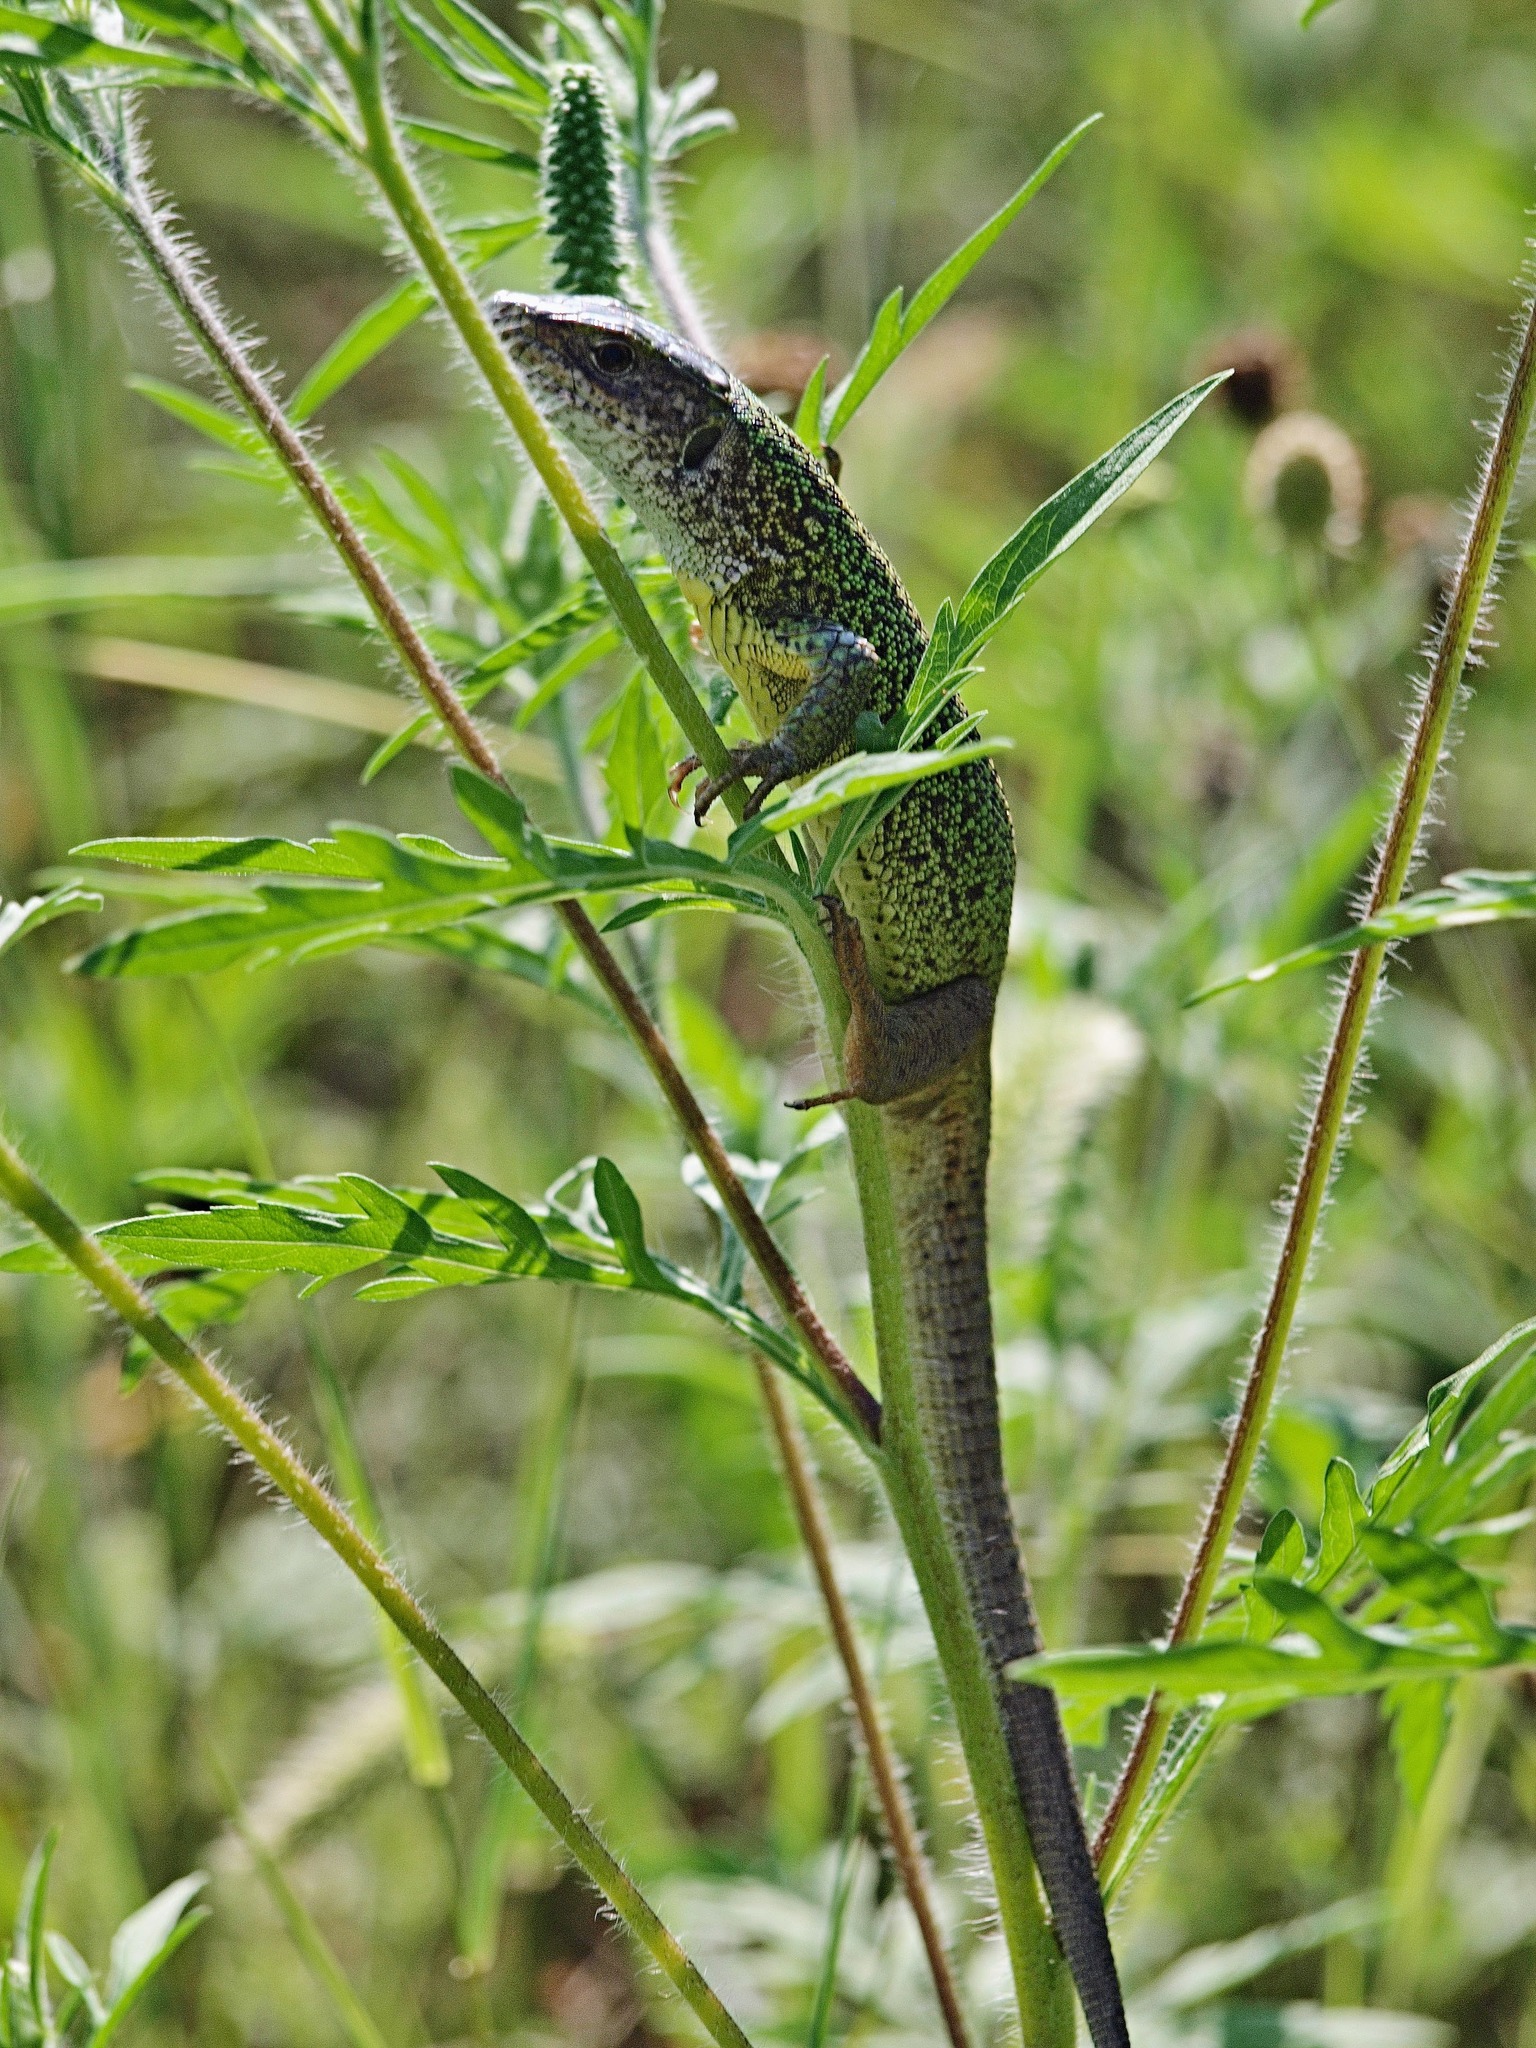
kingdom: Animalia
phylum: Chordata
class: Squamata
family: Lacertidae
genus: Lacerta
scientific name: Lacerta viridis
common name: European green lizard
